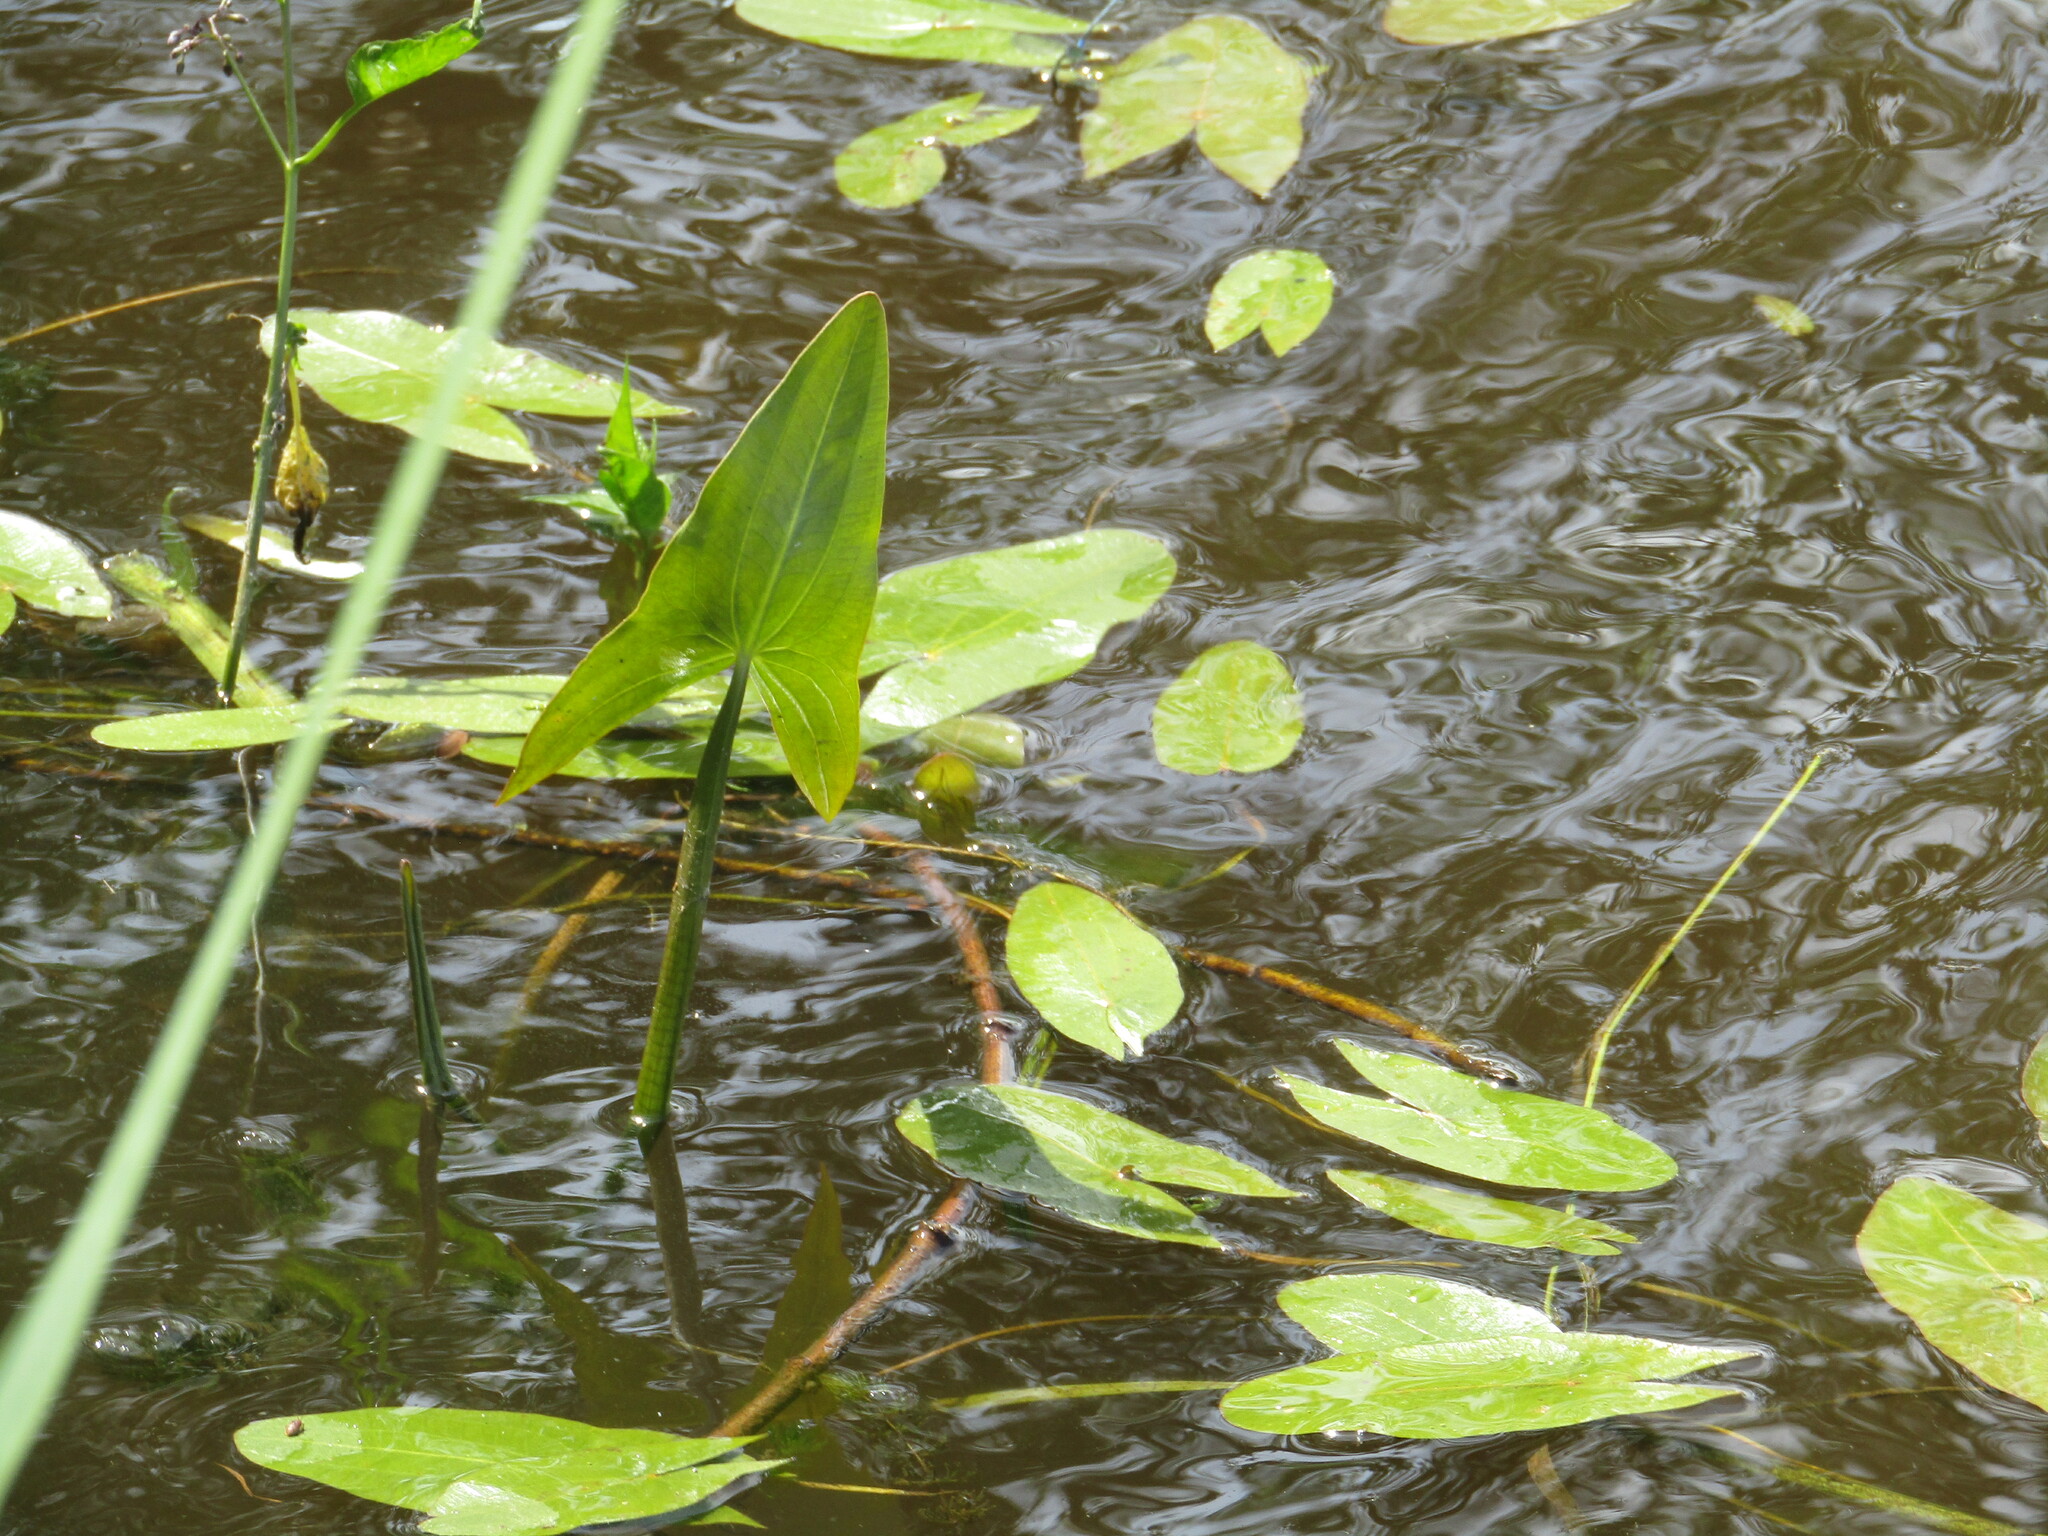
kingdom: Plantae
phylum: Tracheophyta
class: Liliopsida
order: Alismatales
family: Alismataceae
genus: Sagittaria
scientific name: Sagittaria sagittifolia
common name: Arrowhead
